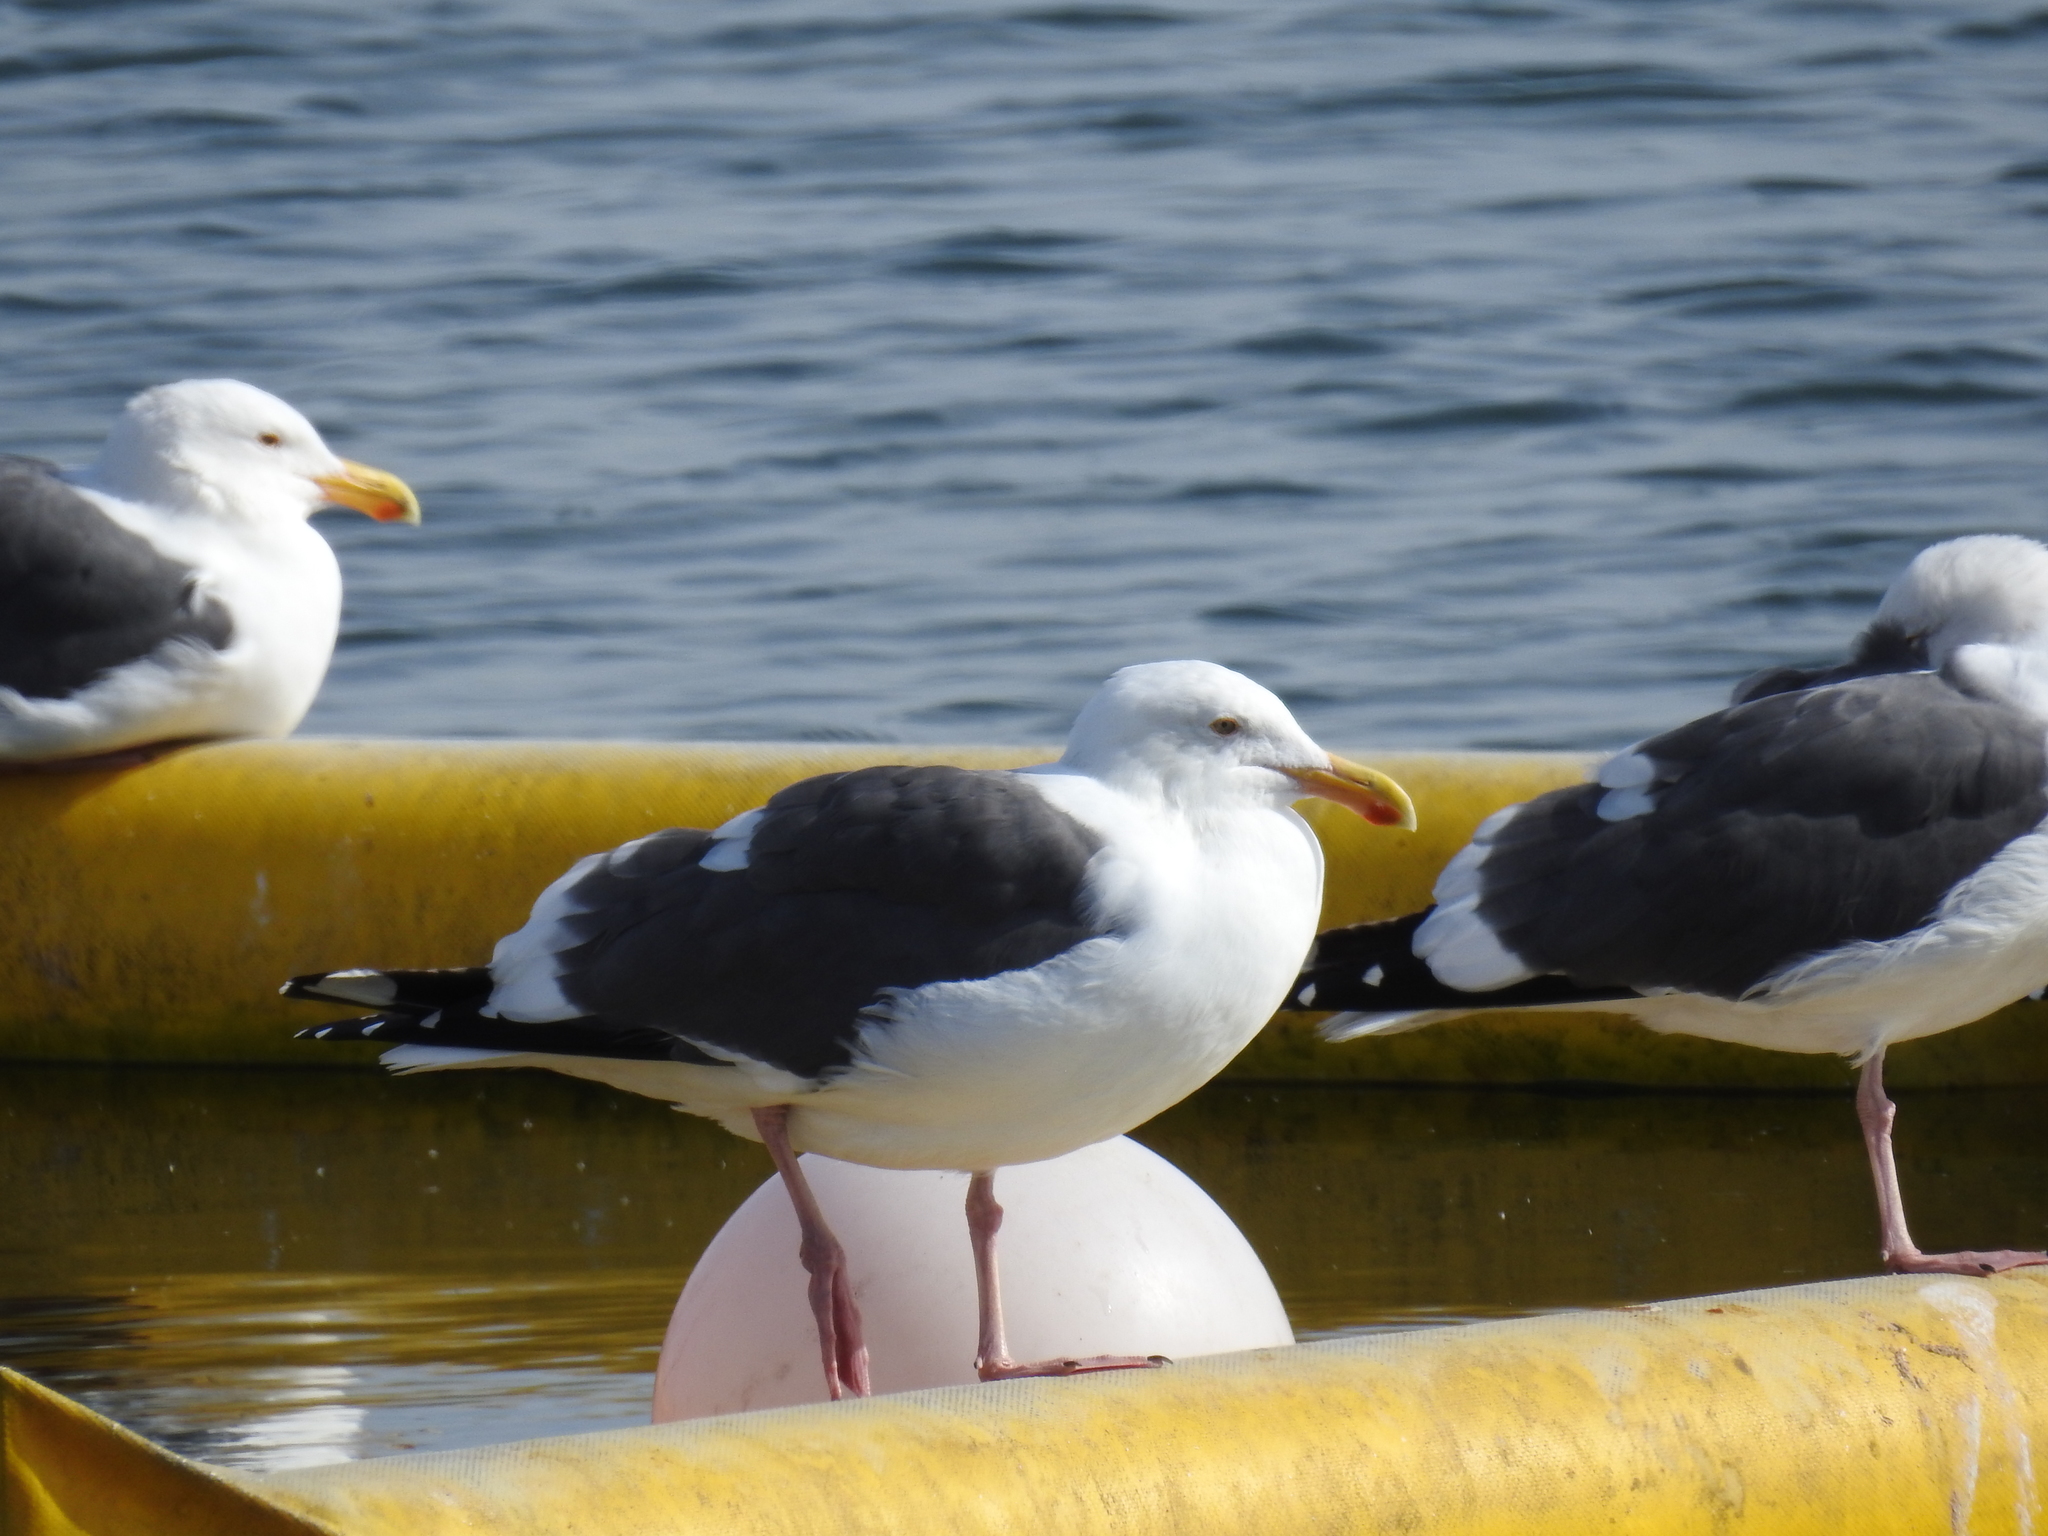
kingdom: Animalia
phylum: Chordata
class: Aves
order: Charadriiformes
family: Laridae
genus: Larus
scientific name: Larus occidentalis
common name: Western gull
